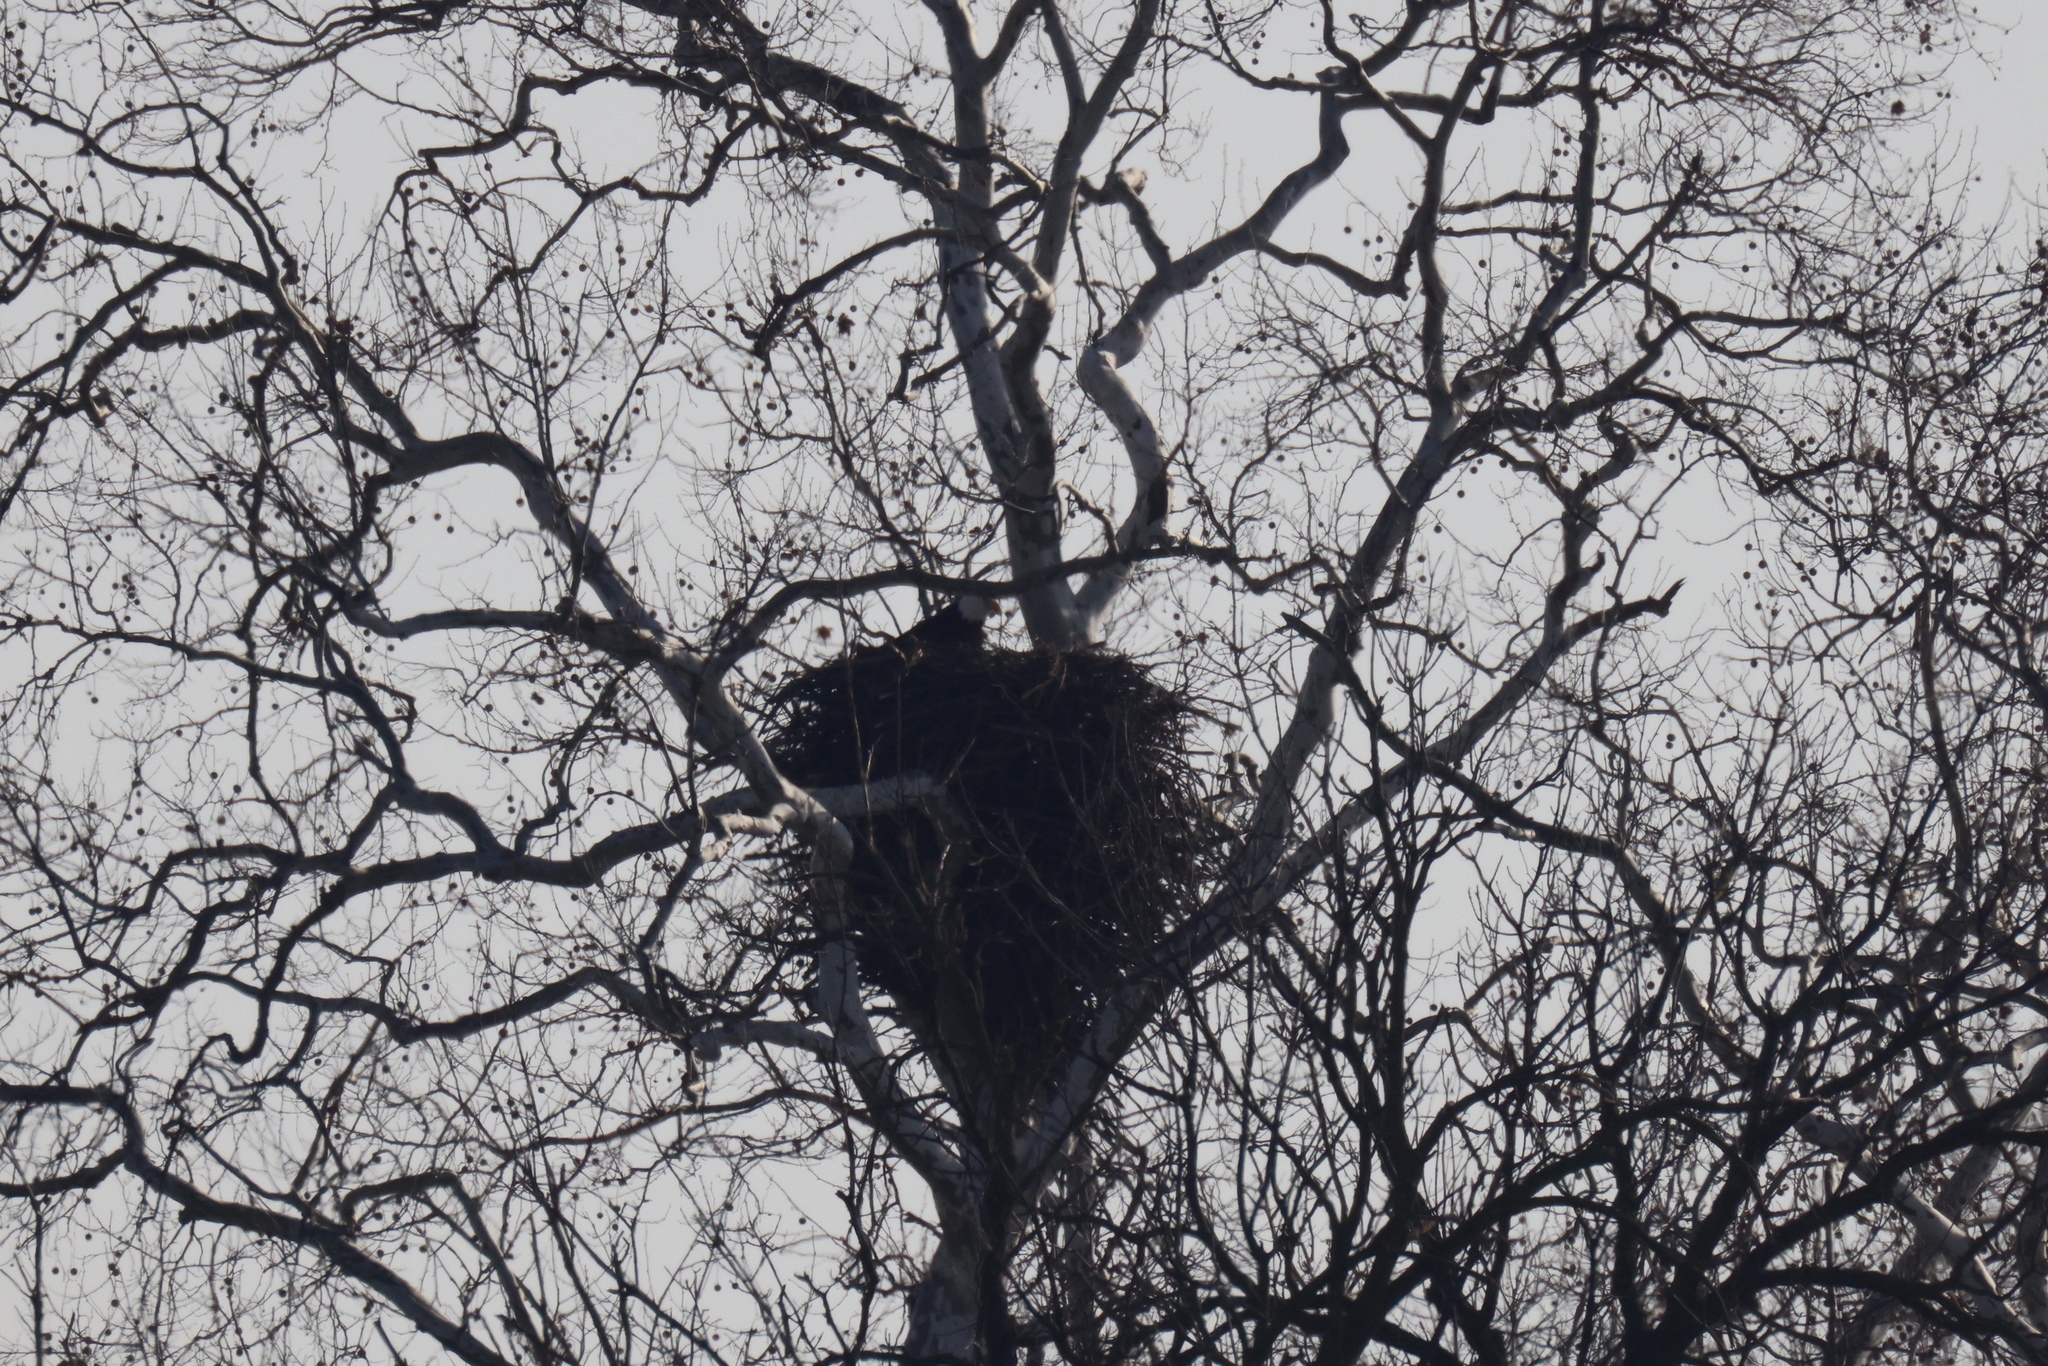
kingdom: Animalia
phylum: Chordata
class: Aves
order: Accipitriformes
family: Accipitridae
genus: Haliaeetus
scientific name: Haliaeetus leucocephalus
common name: Bald eagle
